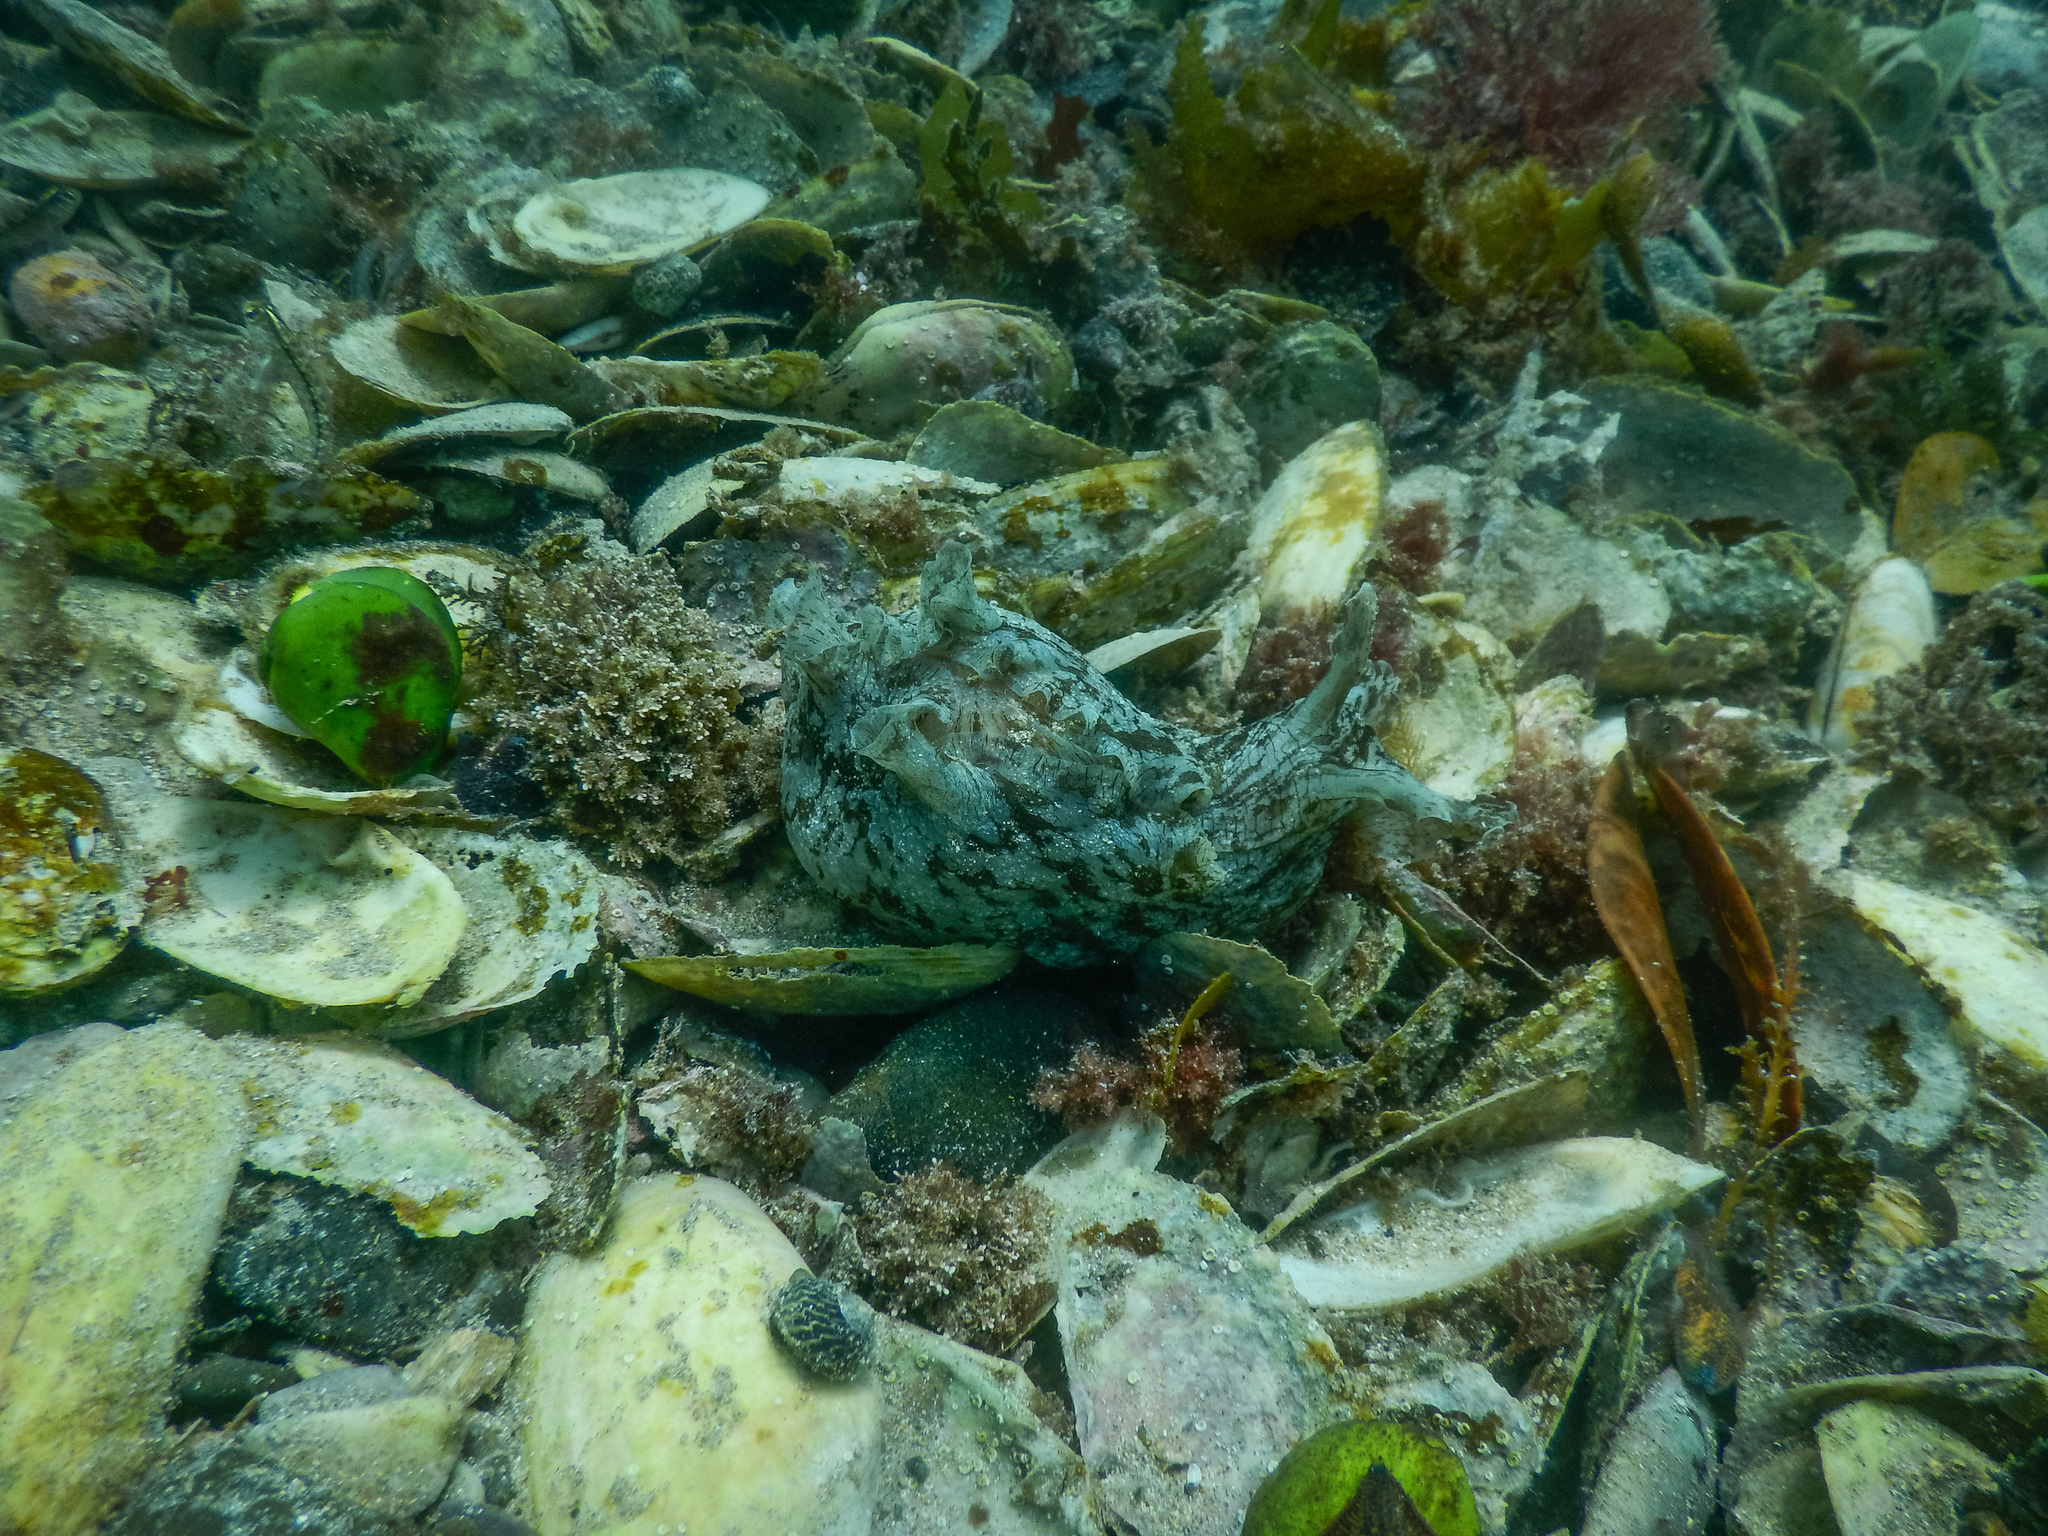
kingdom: Animalia
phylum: Mollusca
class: Gastropoda
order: Aplysiida
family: Aplysiidae
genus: Aplysia
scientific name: Aplysia keraudreni
